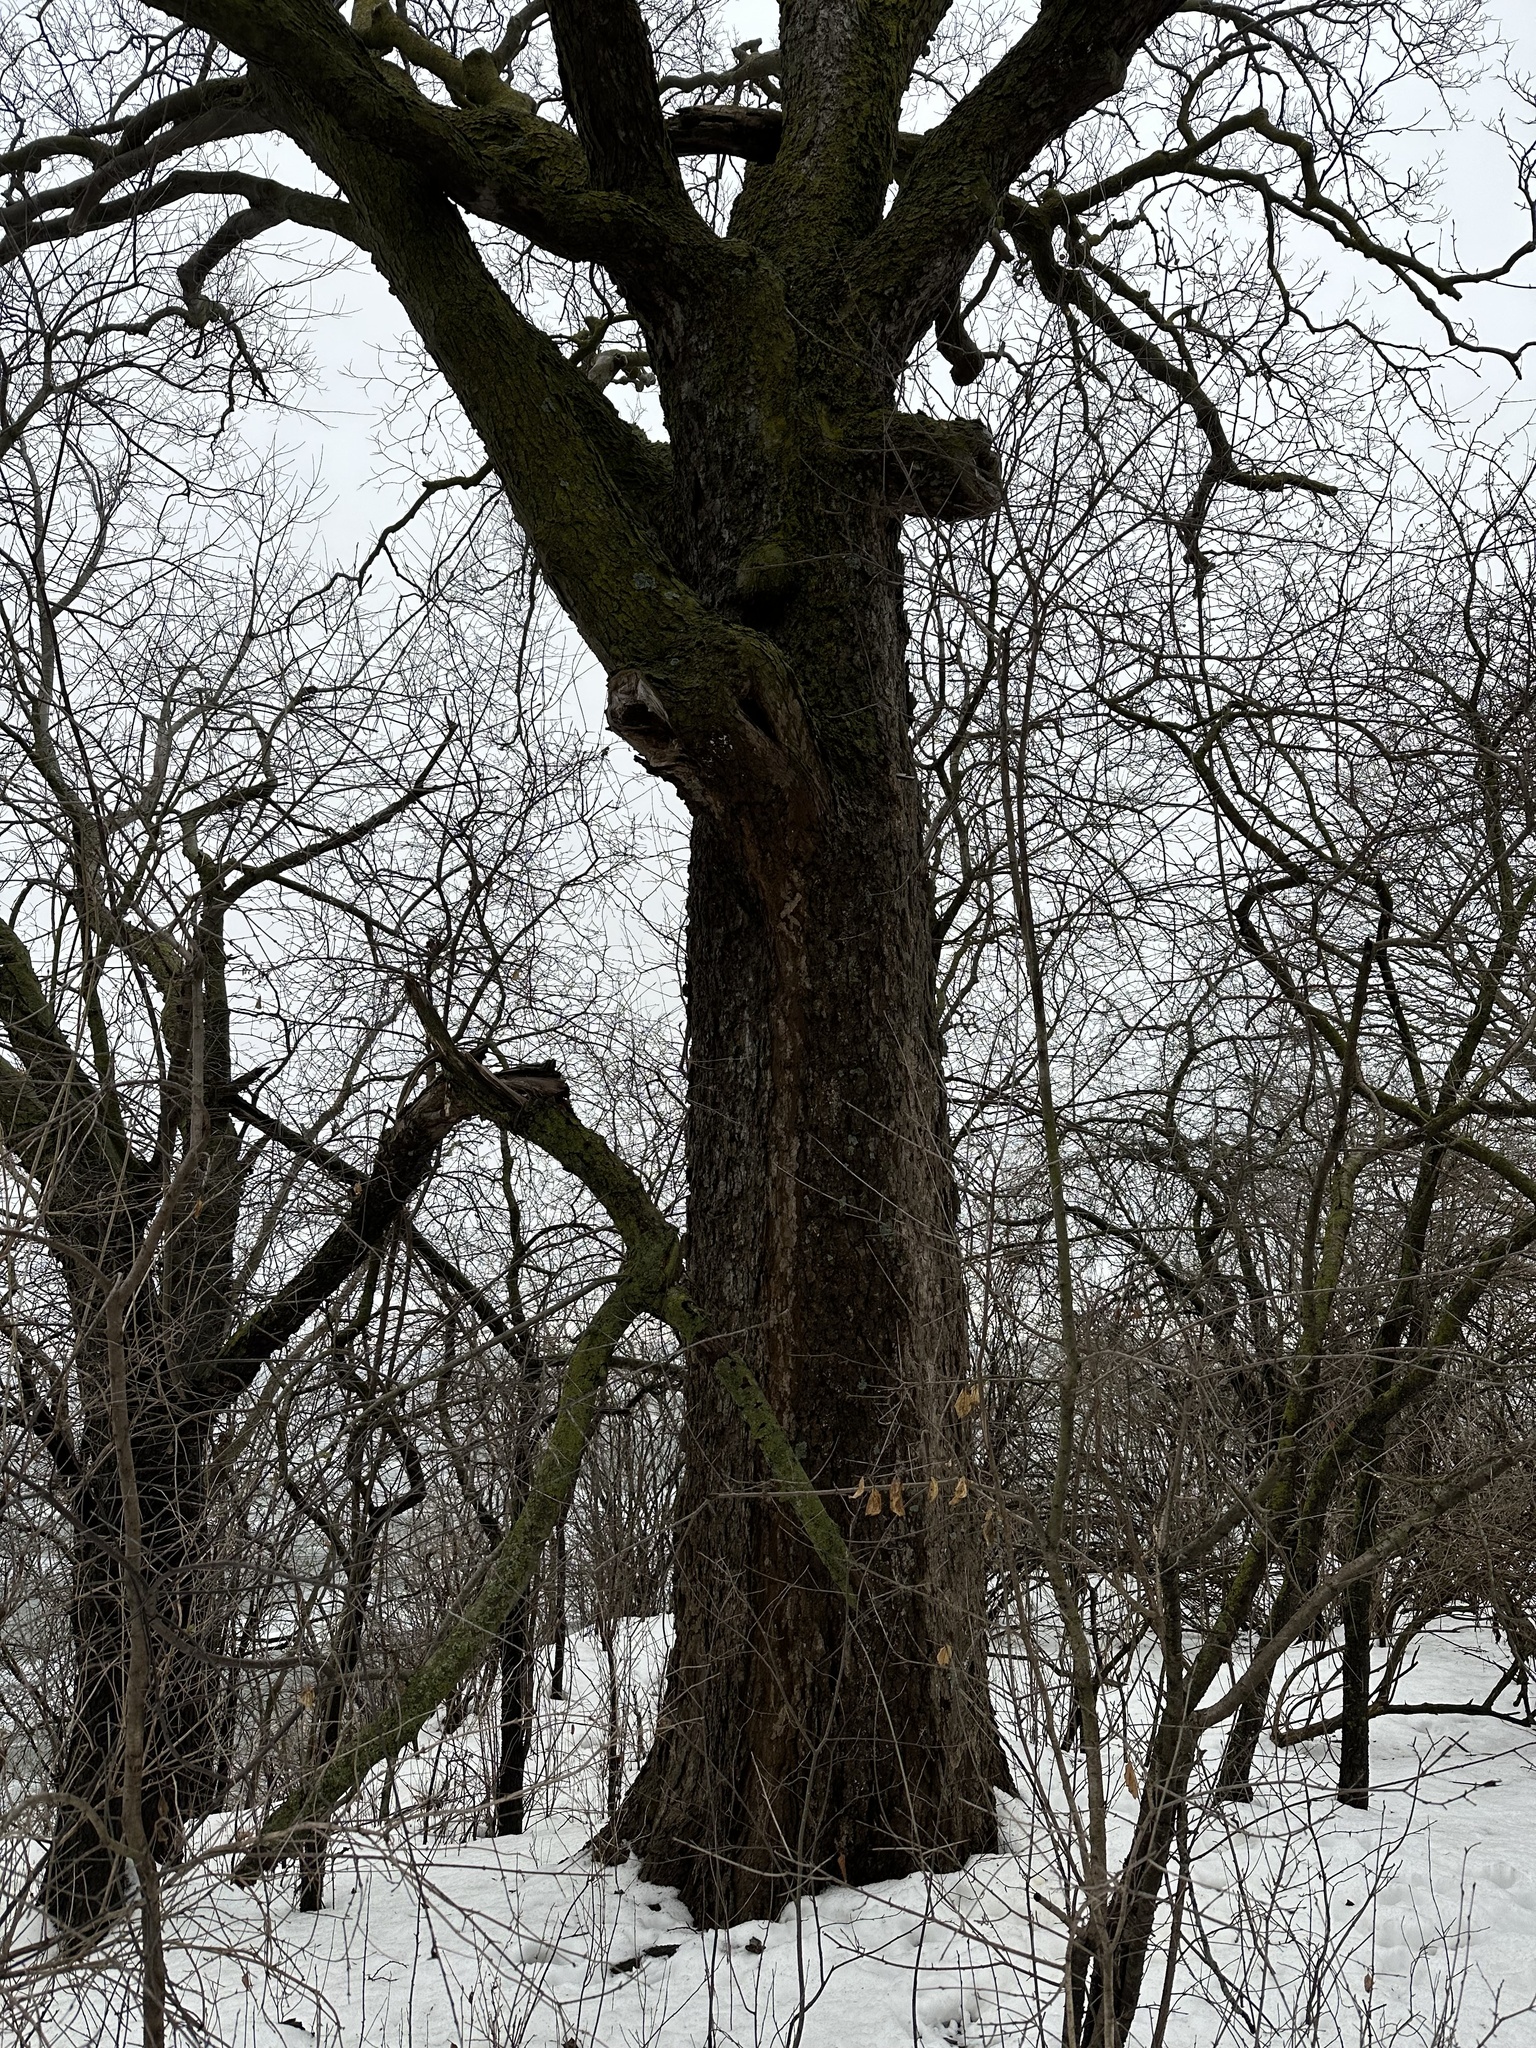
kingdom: Plantae
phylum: Tracheophyta
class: Magnoliopsida
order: Rosales
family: Cannabaceae
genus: Celtis
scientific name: Celtis occidentalis
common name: Common hackberry
